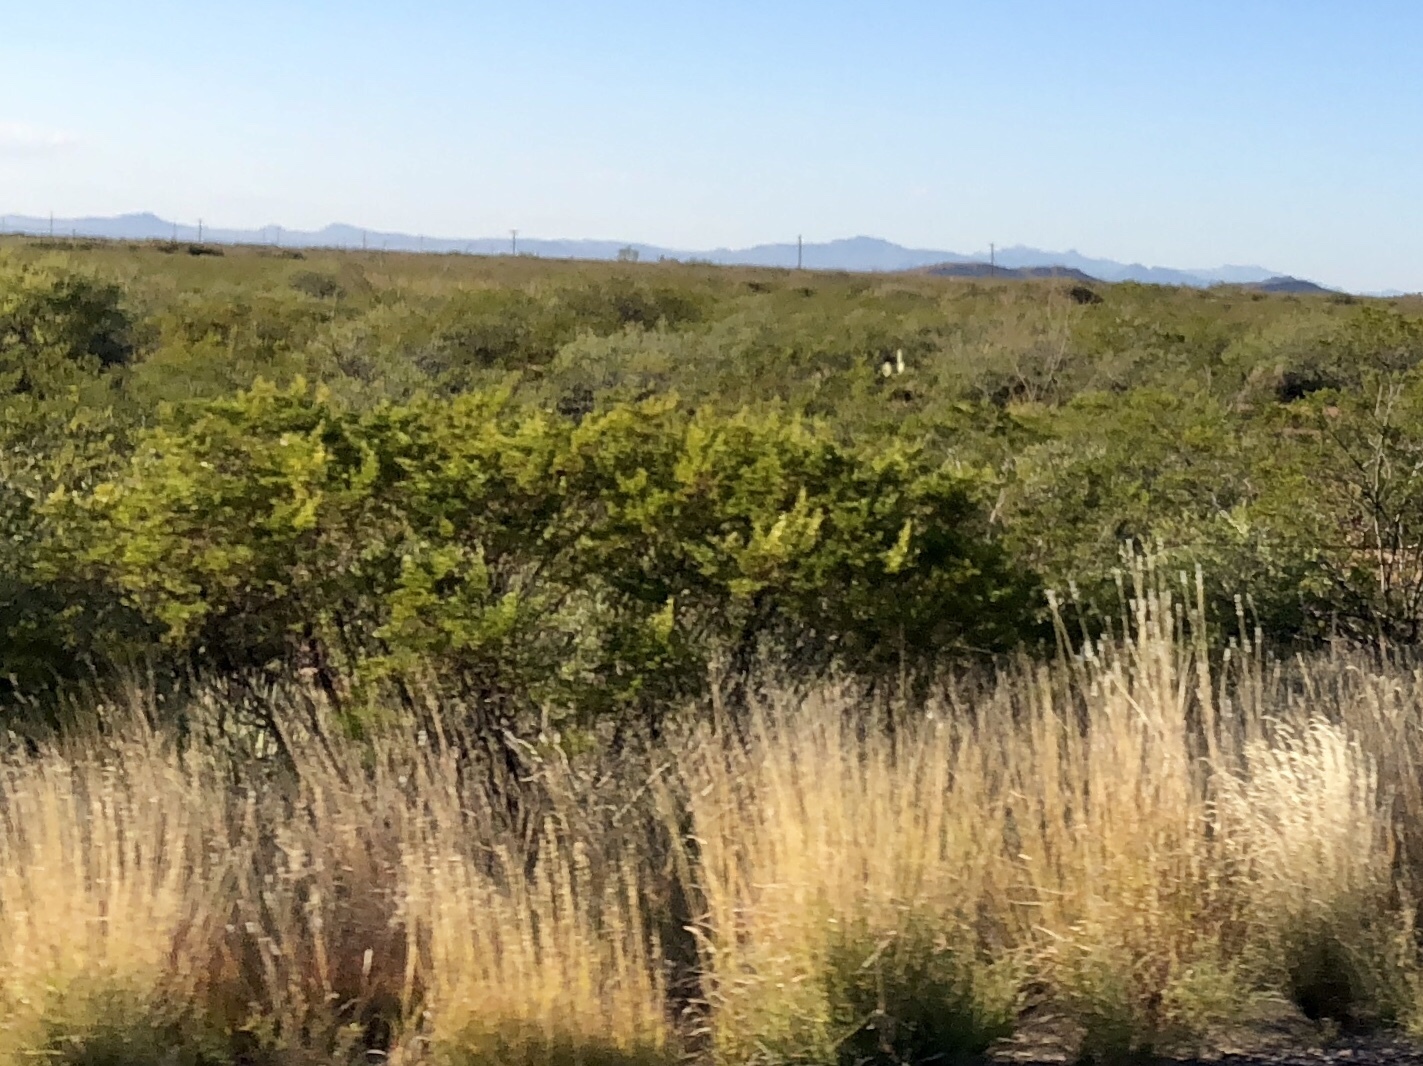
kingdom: Plantae
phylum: Tracheophyta
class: Magnoliopsida
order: Zygophyllales
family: Zygophyllaceae
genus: Larrea
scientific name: Larrea tridentata
